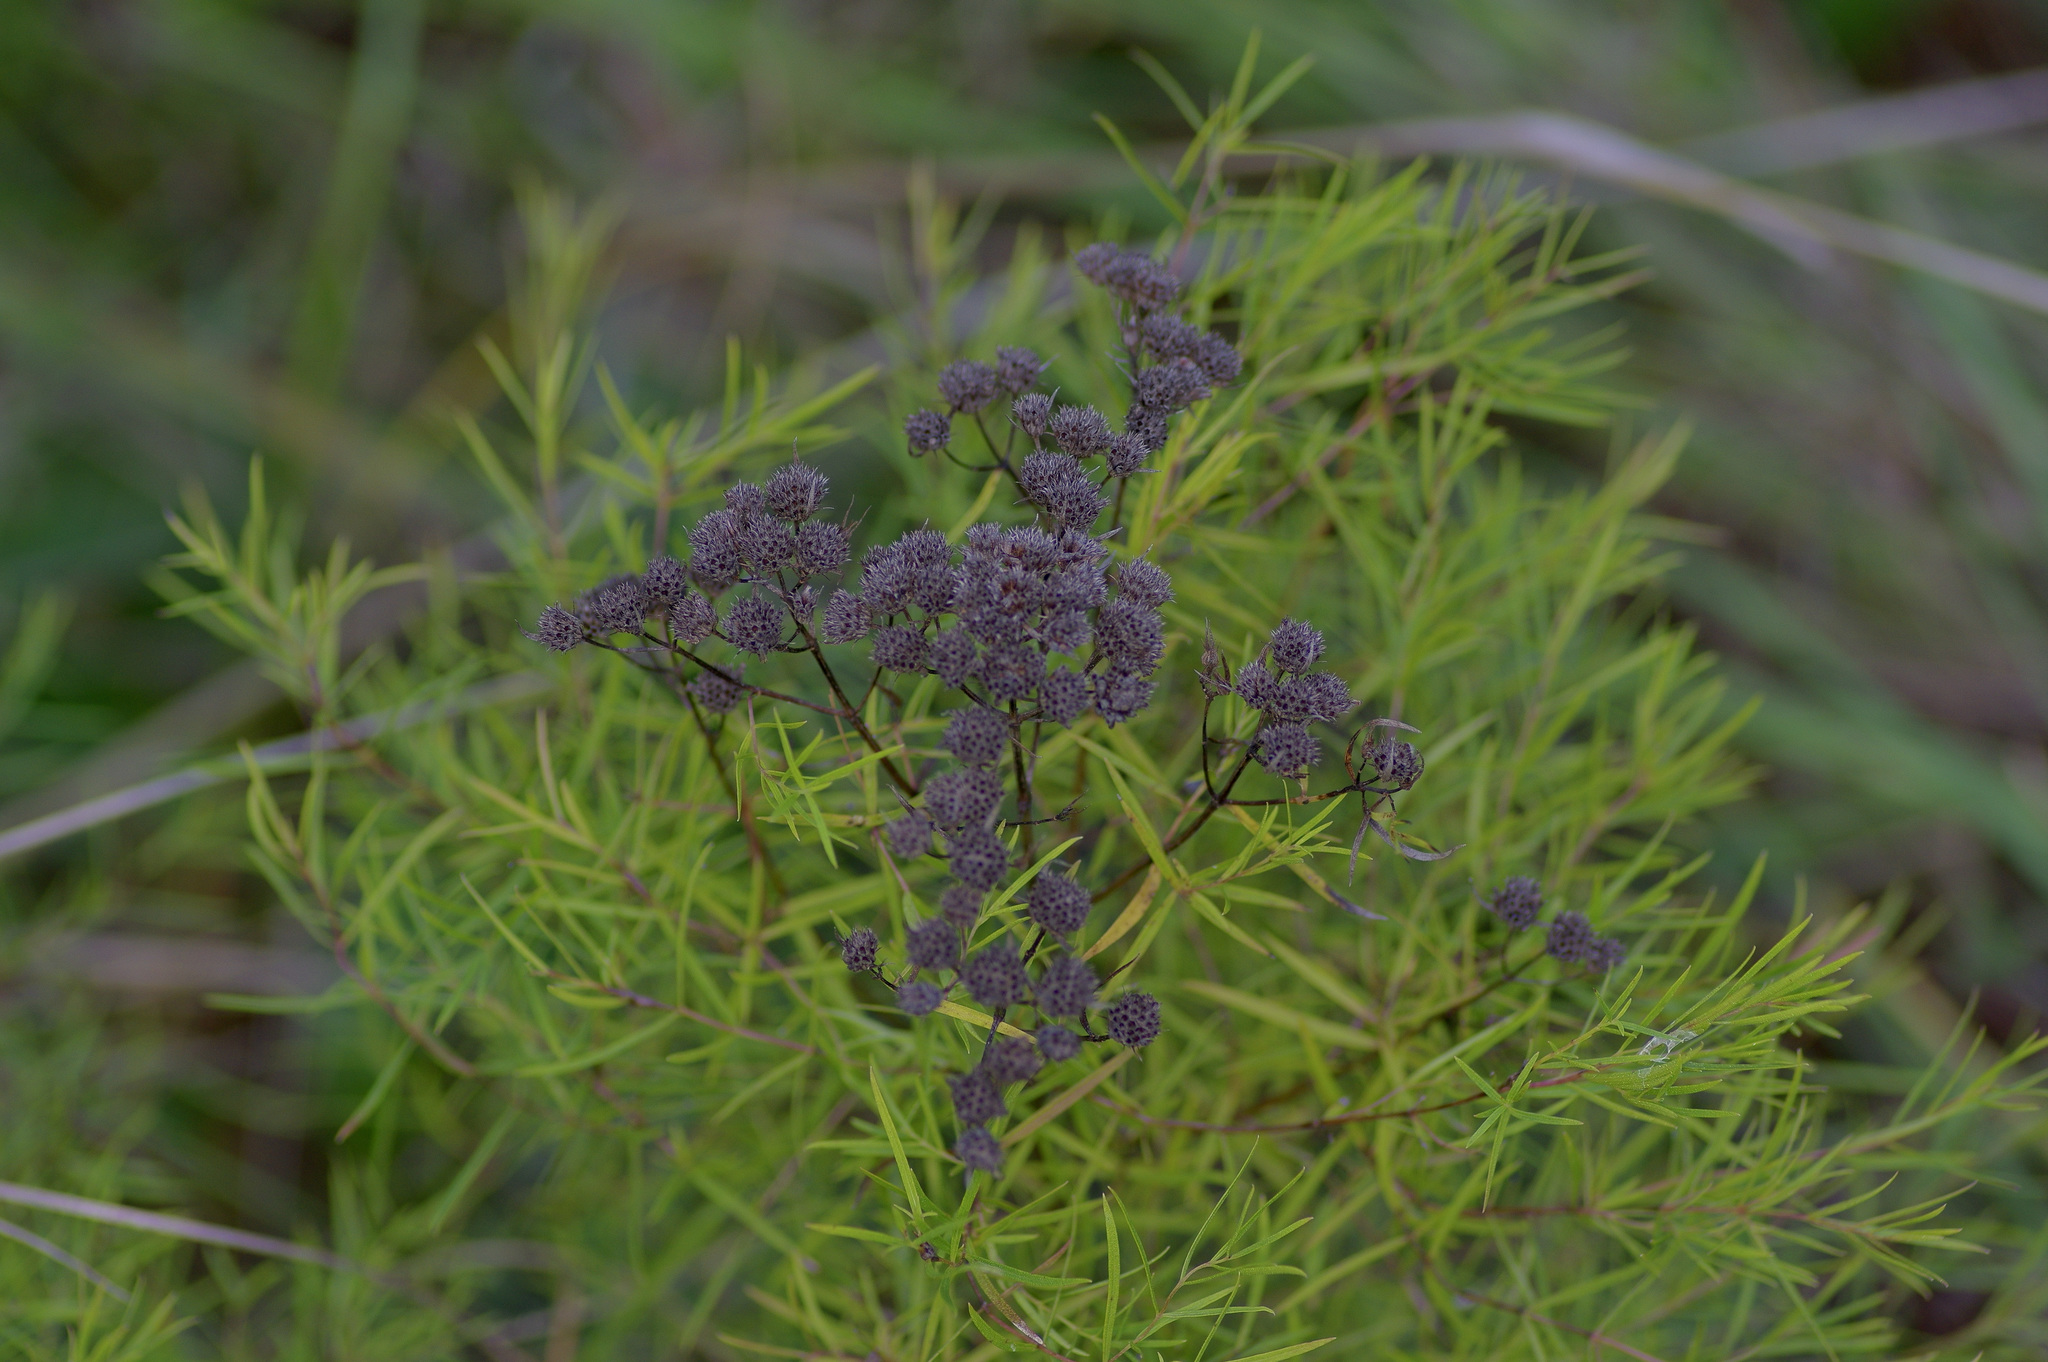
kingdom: Plantae
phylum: Tracheophyta
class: Magnoliopsida
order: Lamiales
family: Lamiaceae
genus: Pycnanthemum
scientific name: Pycnanthemum tenuifolium
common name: Narrow-leaf mountain-mint
